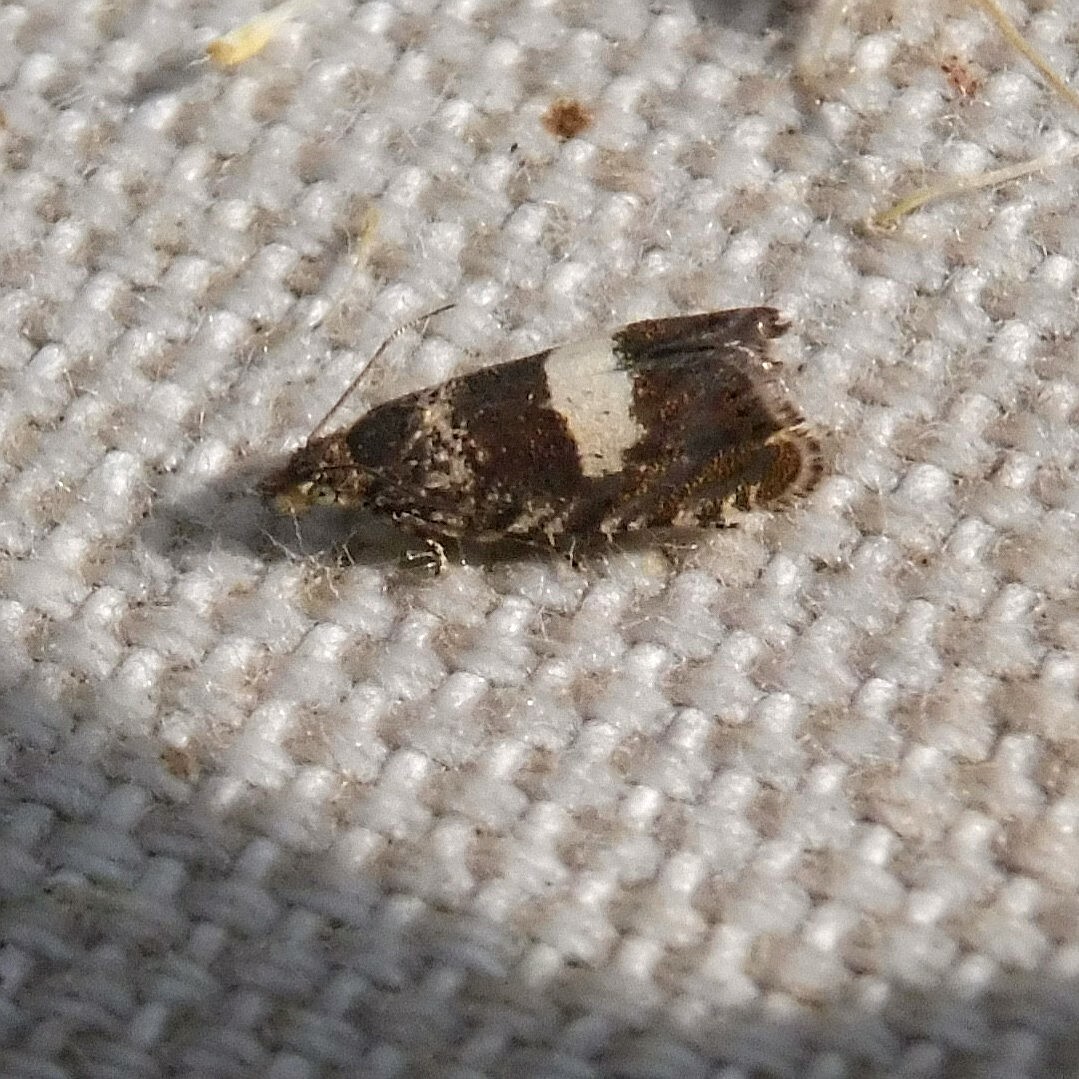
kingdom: Animalia
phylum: Arthropoda
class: Insecta
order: Lepidoptera
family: Tortricidae
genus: Dichrorampha
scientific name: Dichrorampha sequana
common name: Square-spot drill
